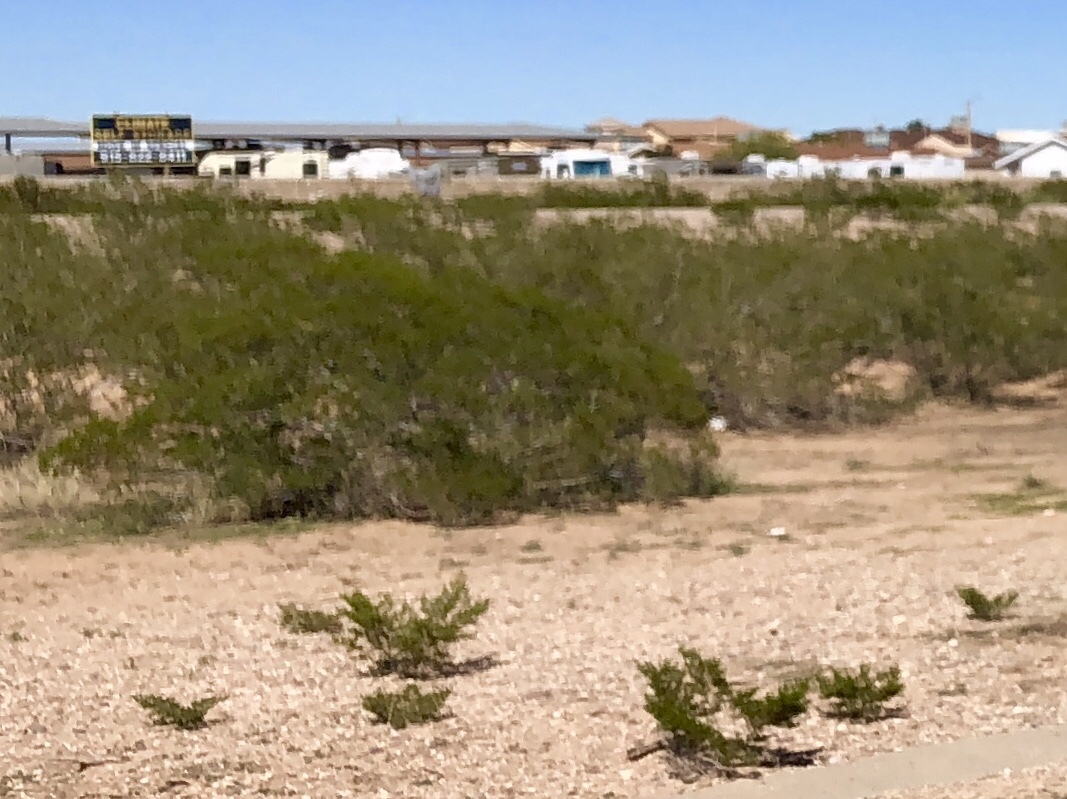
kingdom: Plantae
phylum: Tracheophyta
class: Magnoliopsida
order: Zygophyllales
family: Zygophyllaceae
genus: Larrea
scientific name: Larrea tridentata
